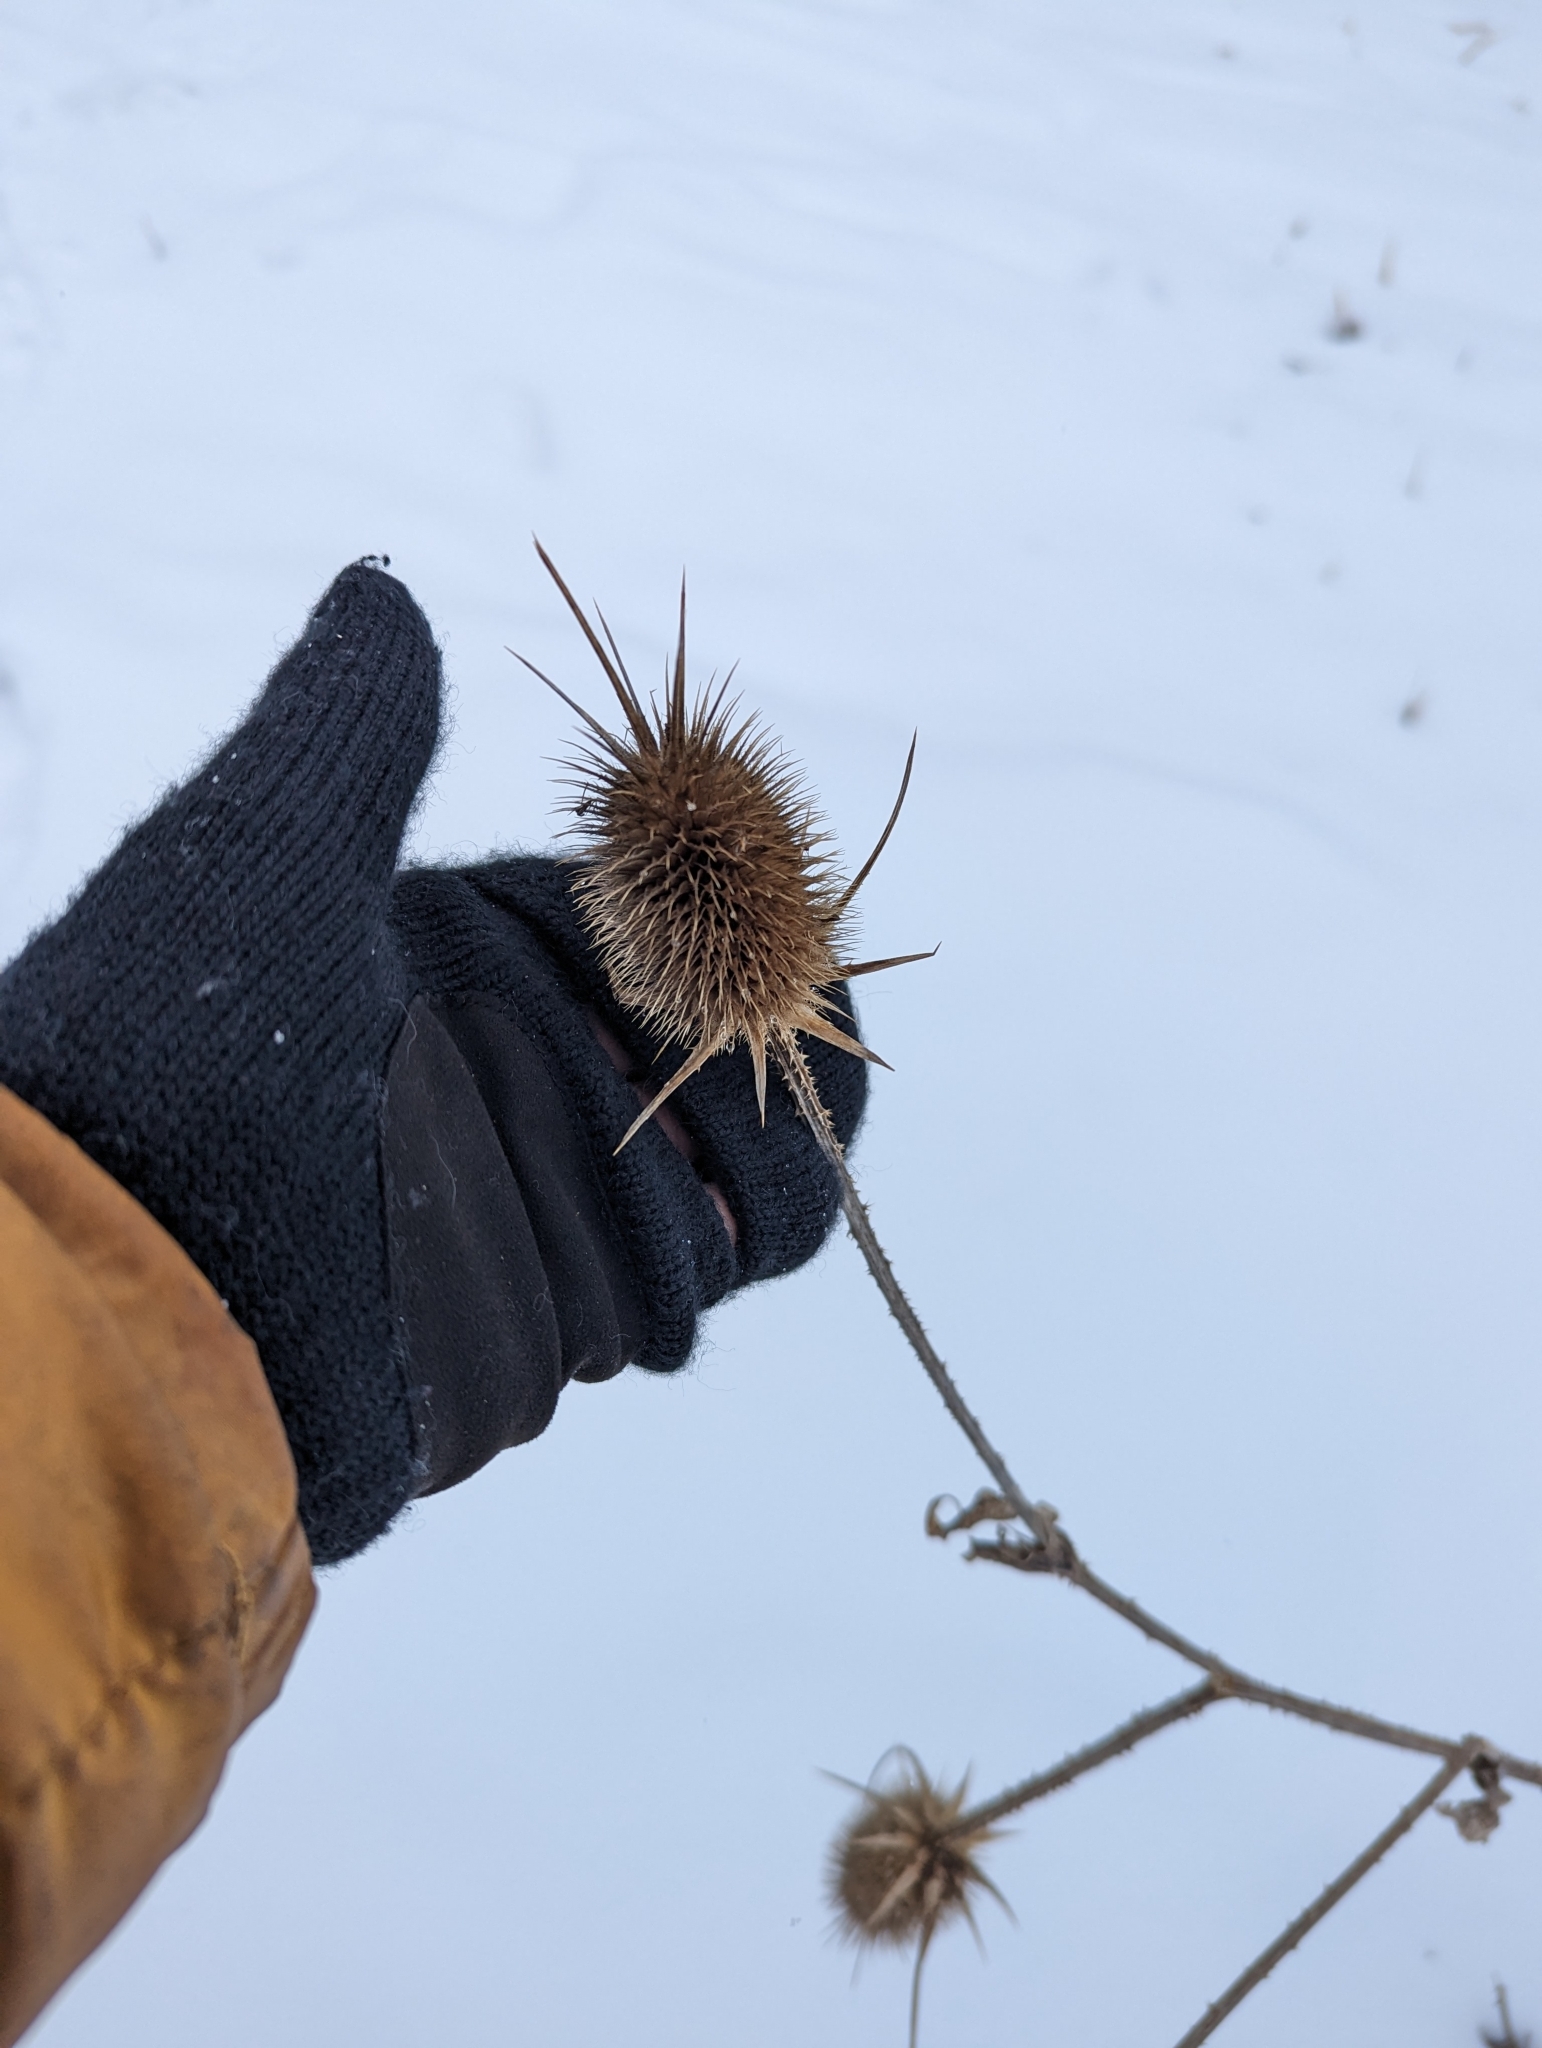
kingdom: Plantae
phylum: Tracheophyta
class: Magnoliopsida
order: Dipsacales
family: Caprifoliaceae
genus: Dipsacus
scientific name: Dipsacus laciniatus
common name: Cut-leaved teasel
